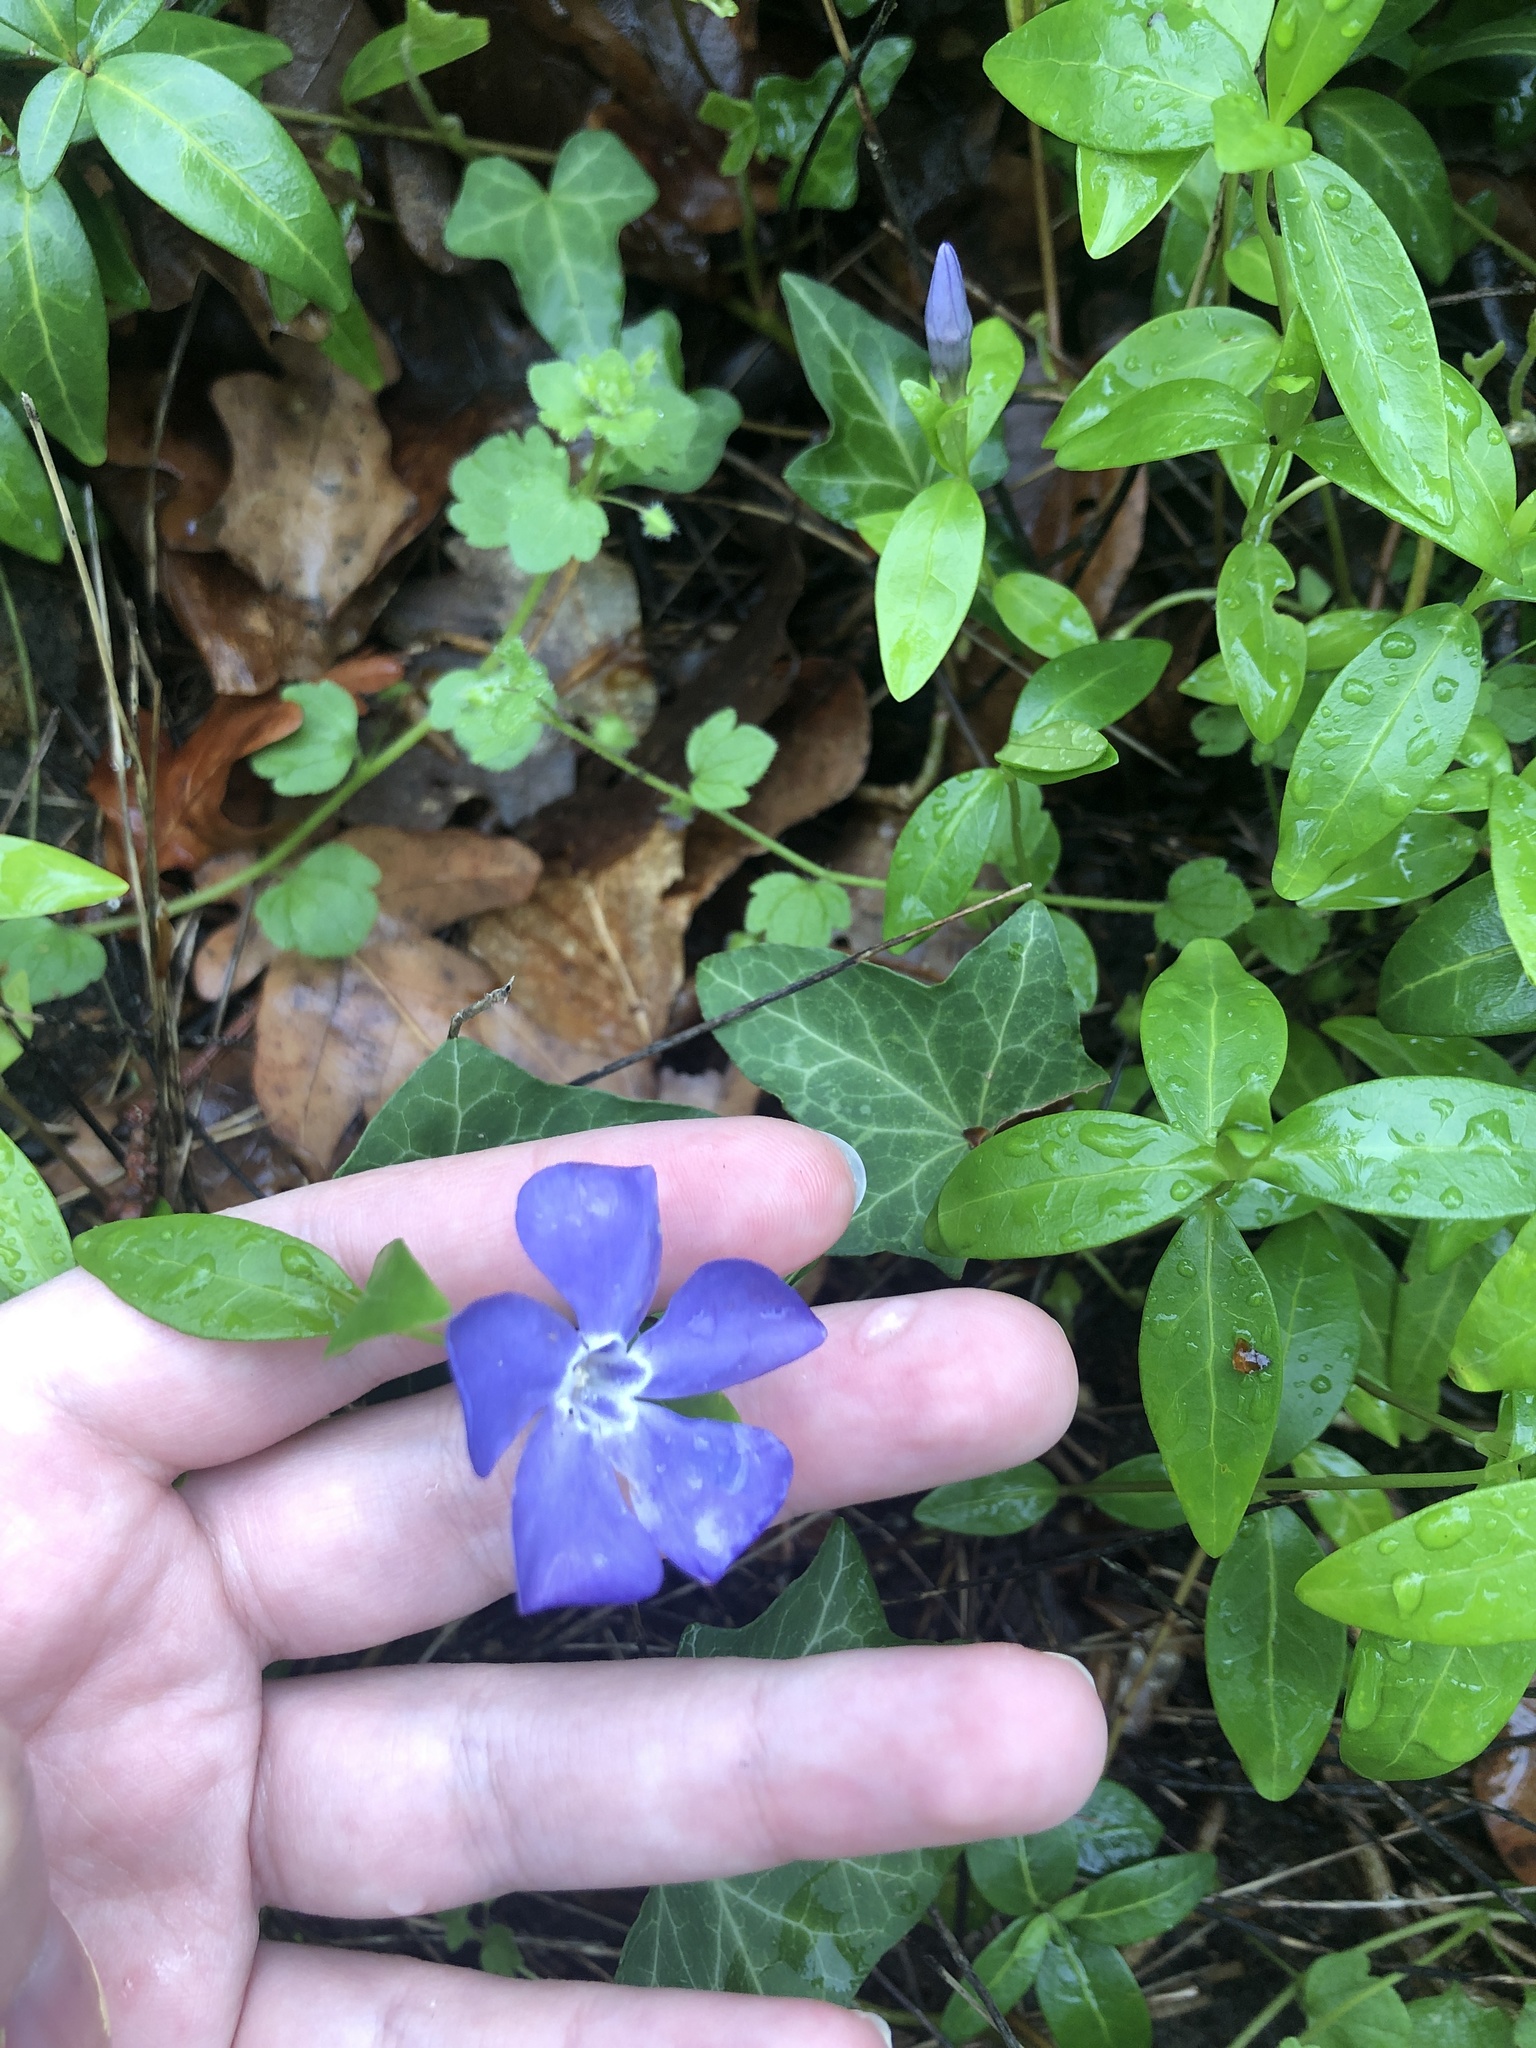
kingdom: Plantae
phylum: Tracheophyta
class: Magnoliopsida
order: Gentianales
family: Apocynaceae
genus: Vinca
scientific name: Vinca minor
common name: Lesser periwinkle
